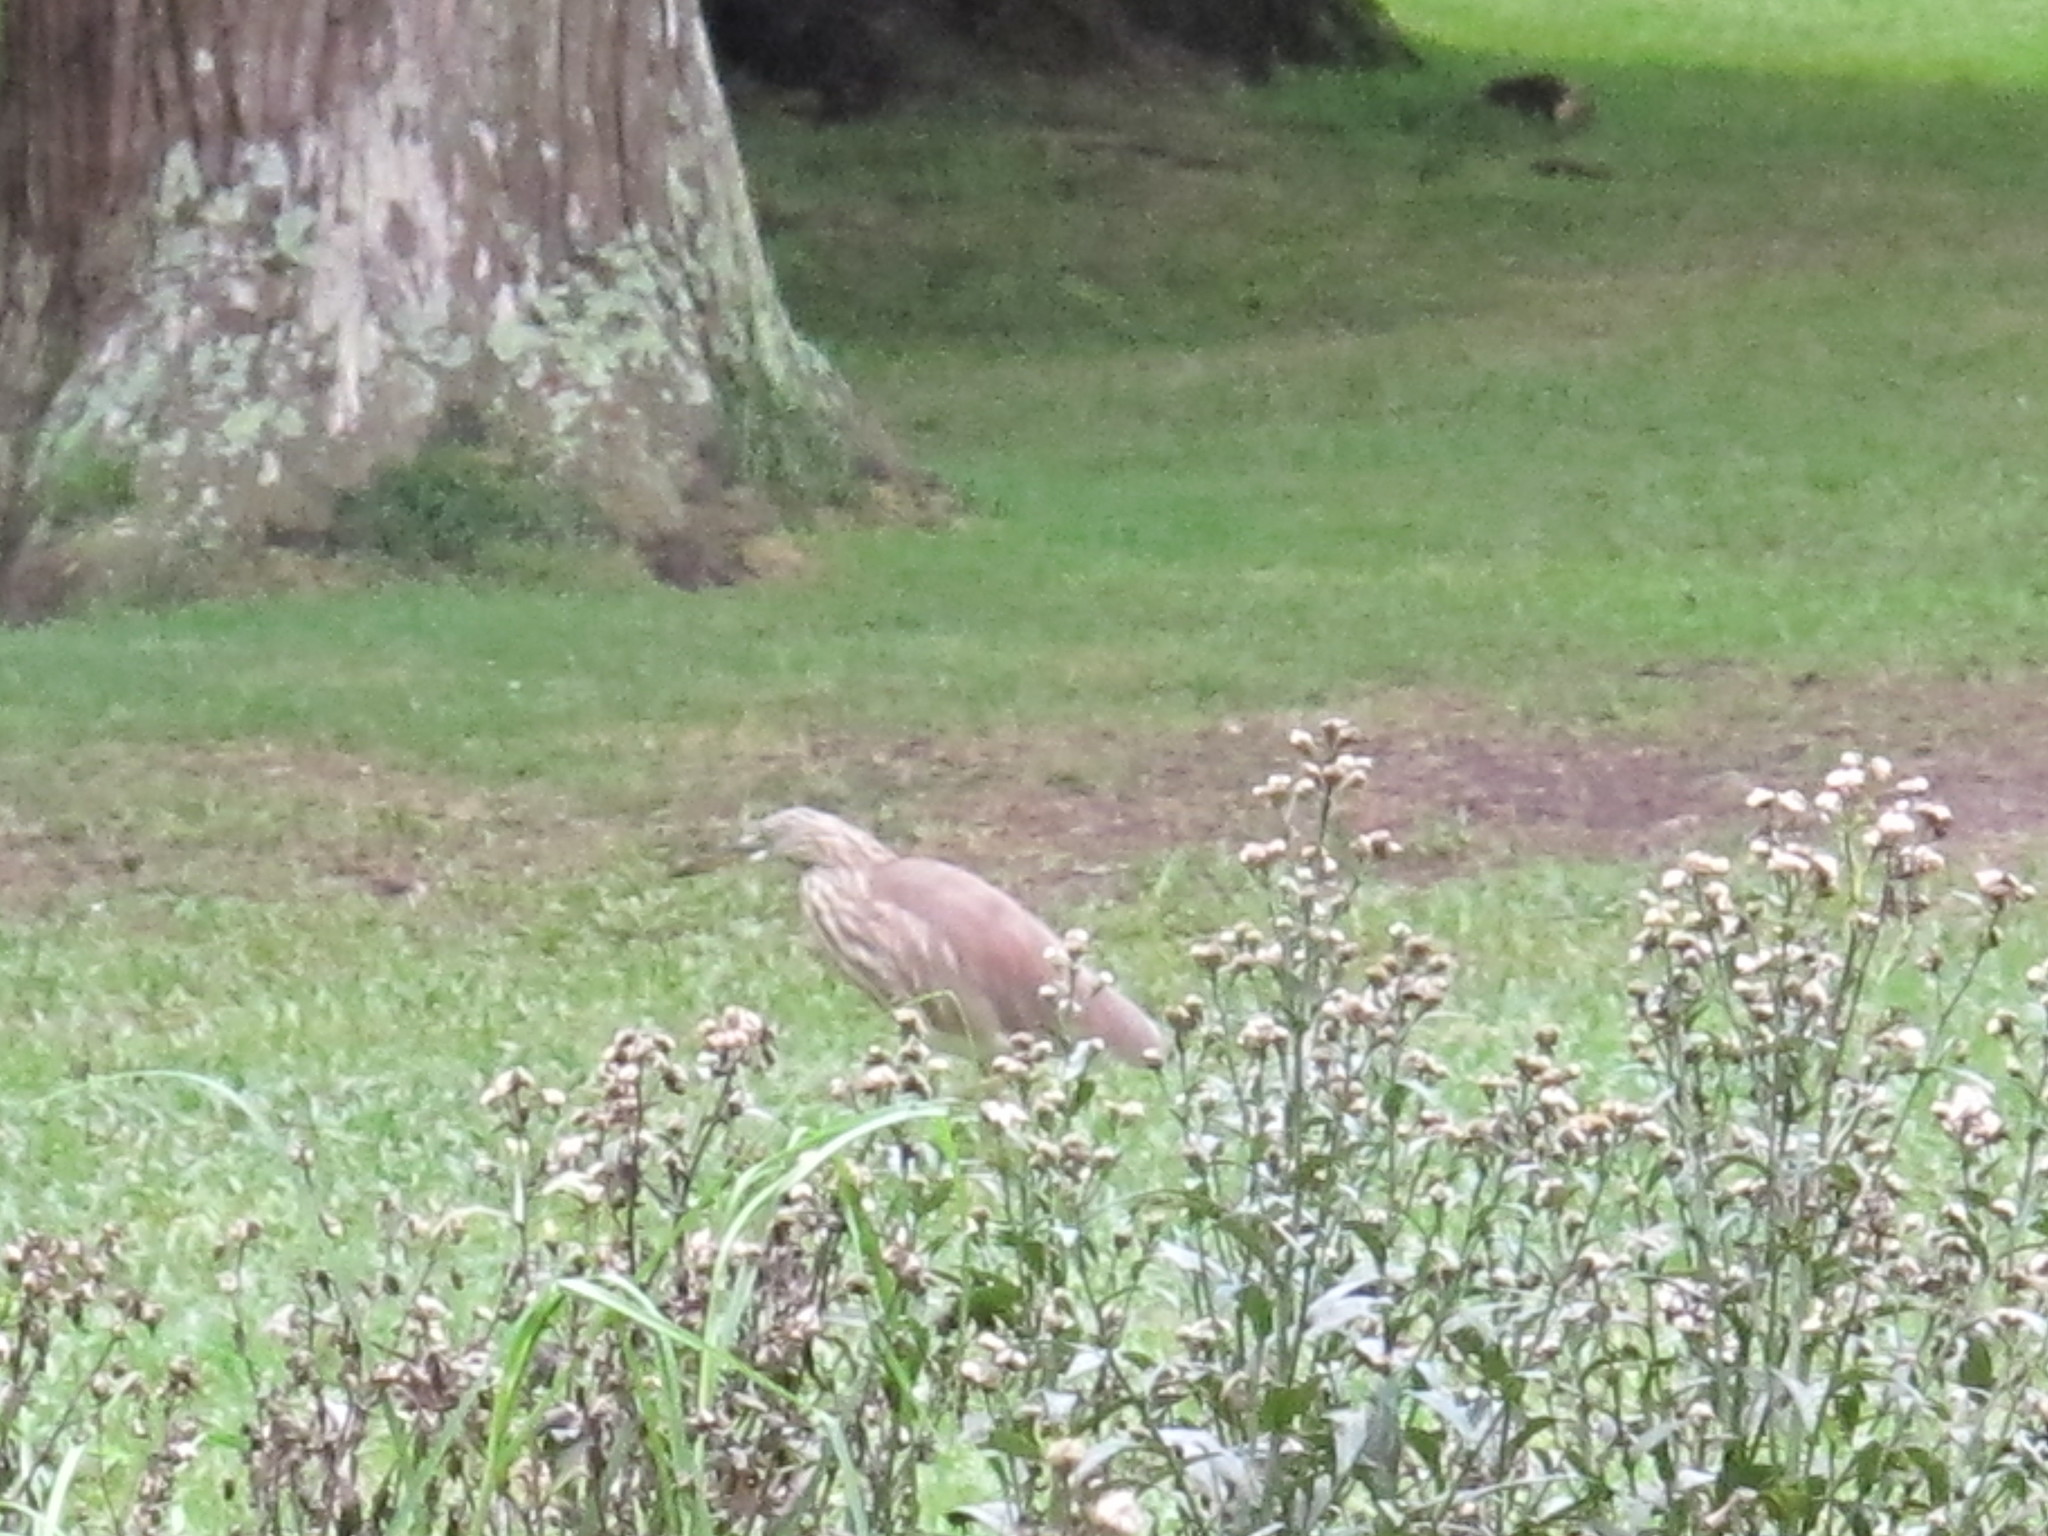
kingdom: Animalia
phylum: Chordata
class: Aves
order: Pelecaniformes
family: Ardeidae
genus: Ardeola
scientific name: Ardeola grayii
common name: Indian pond heron
